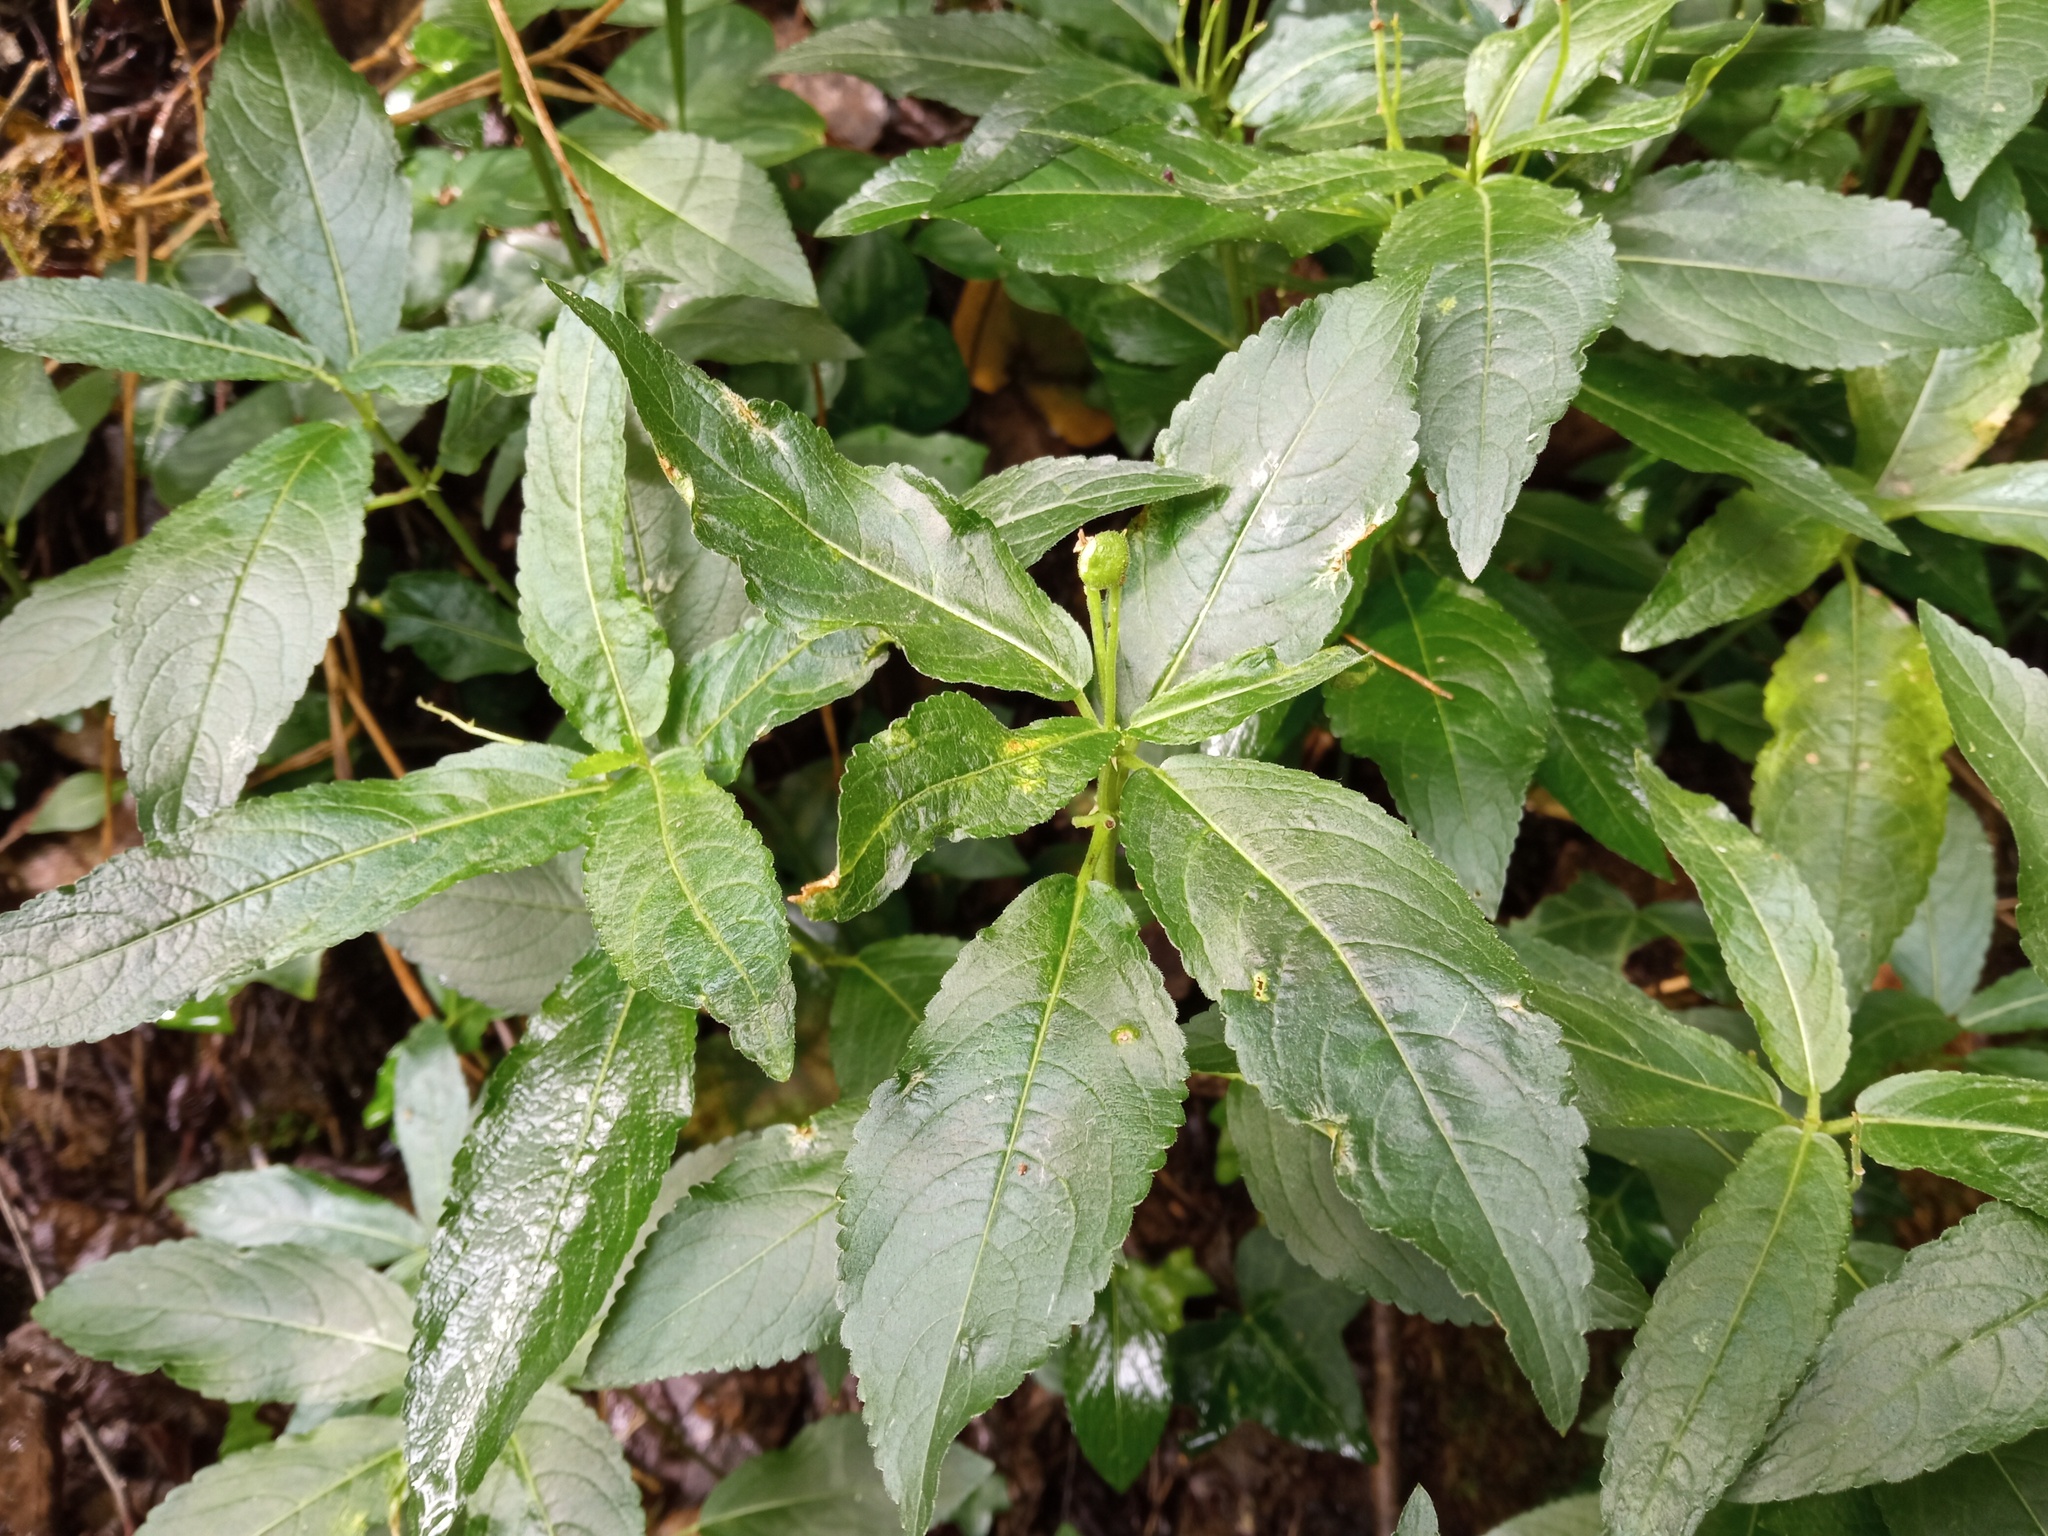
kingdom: Plantae
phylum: Tracheophyta
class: Magnoliopsida
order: Malpighiales
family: Euphorbiaceae
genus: Mercurialis
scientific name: Mercurialis perennis
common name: Dog mercury
